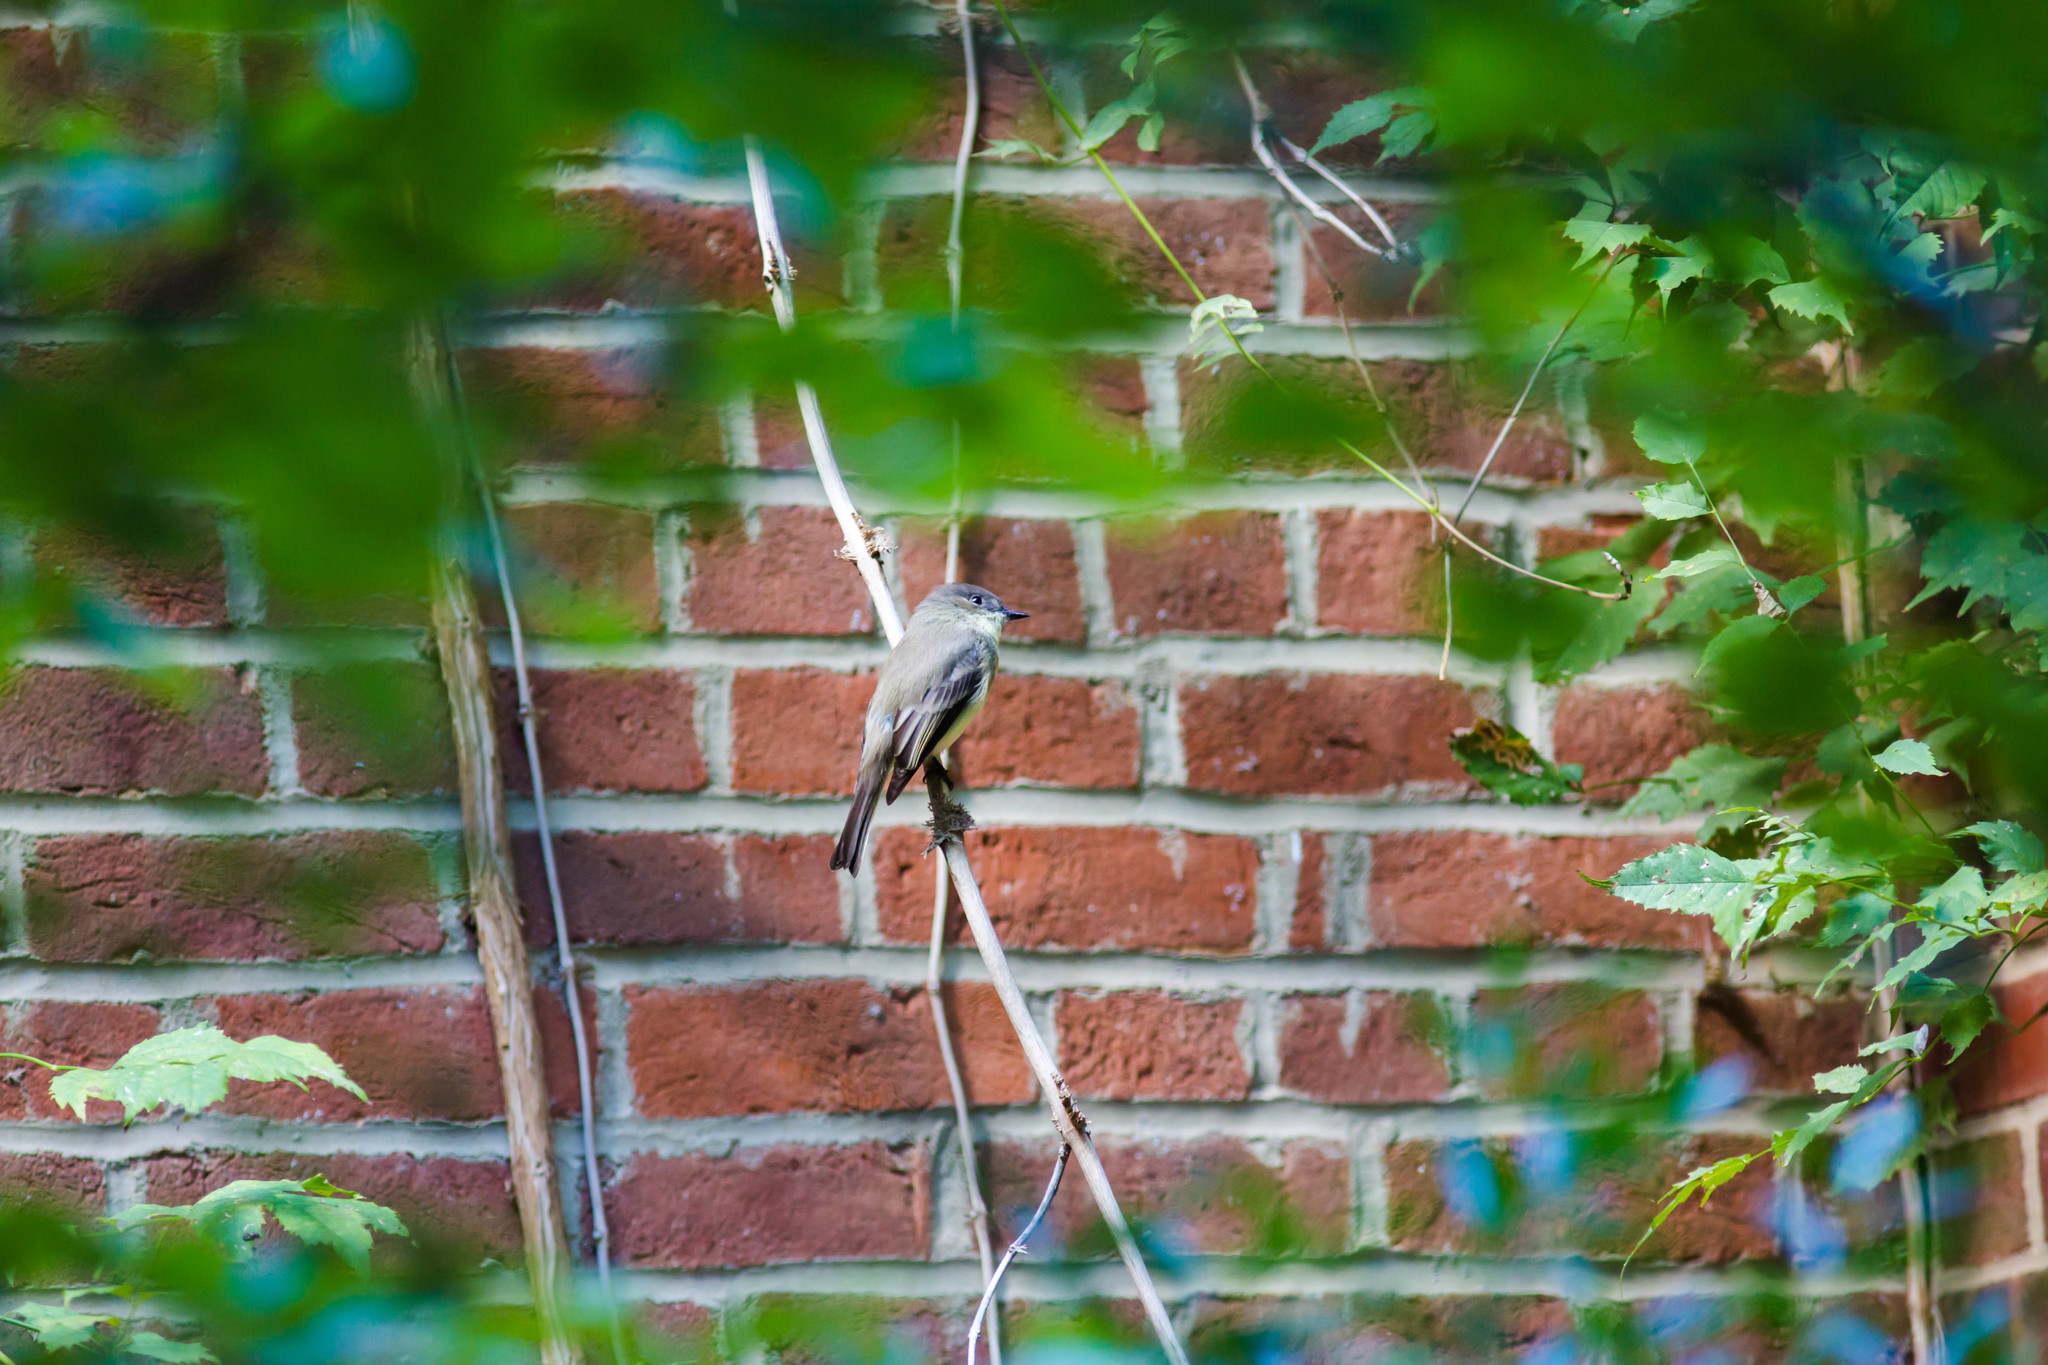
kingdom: Animalia
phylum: Chordata
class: Aves
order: Passeriformes
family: Tyrannidae
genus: Sayornis
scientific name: Sayornis phoebe
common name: Eastern phoebe
